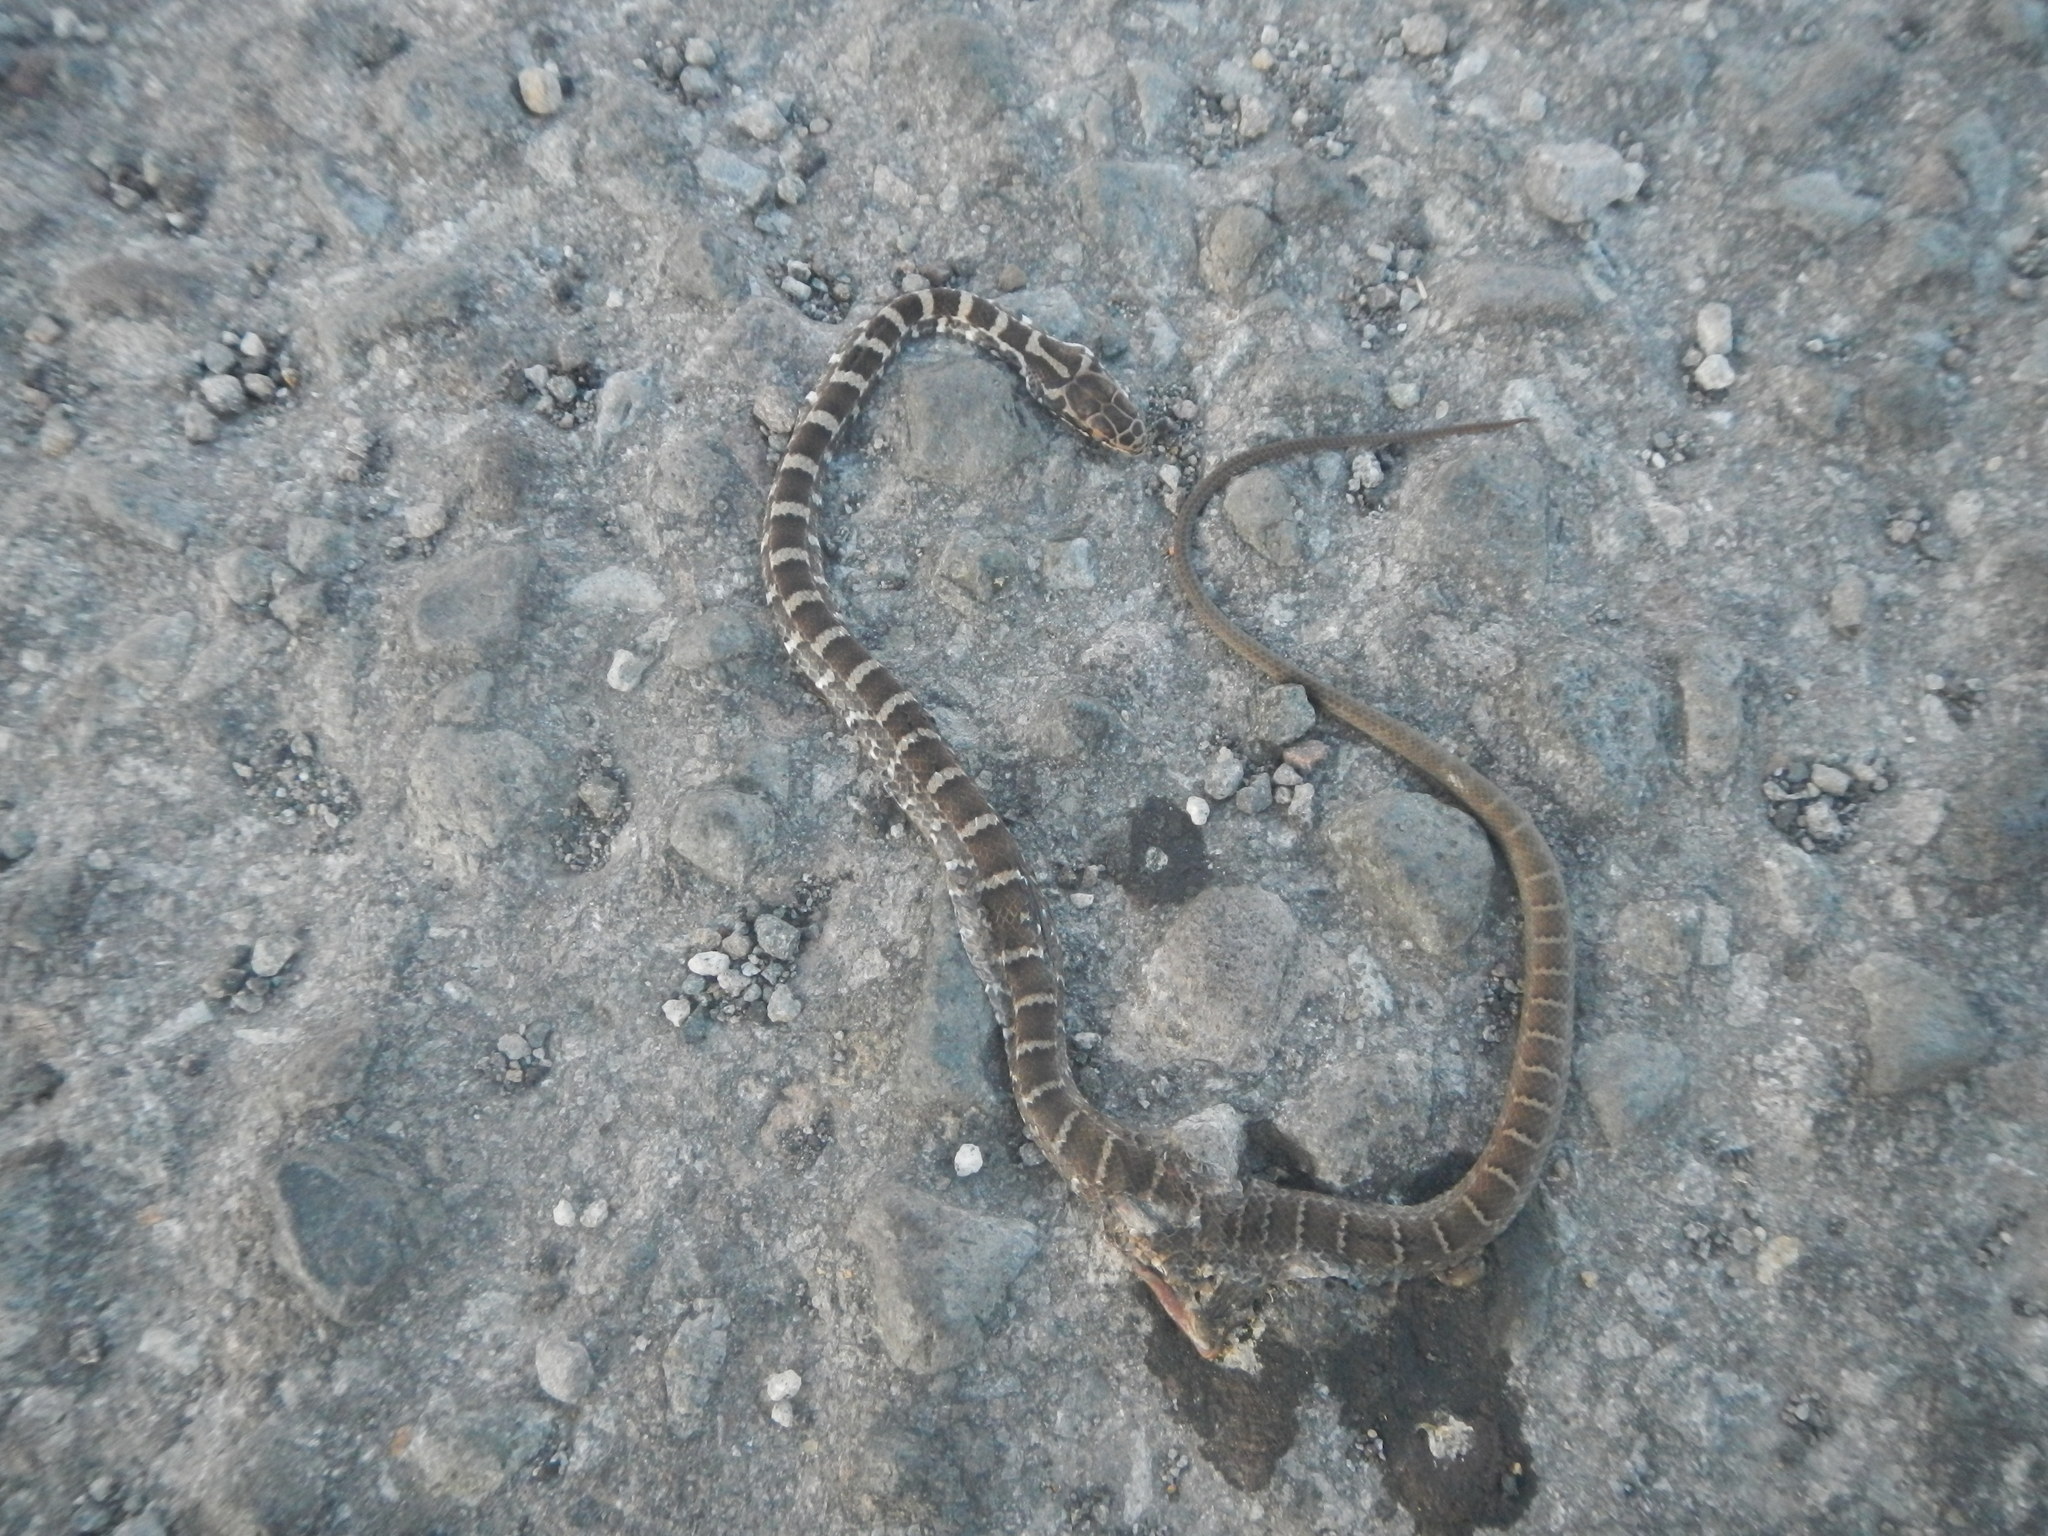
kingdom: Animalia
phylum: Chordata
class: Squamata
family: Colubridae
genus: Mastigodryas
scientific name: Mastigodryas alternatus
